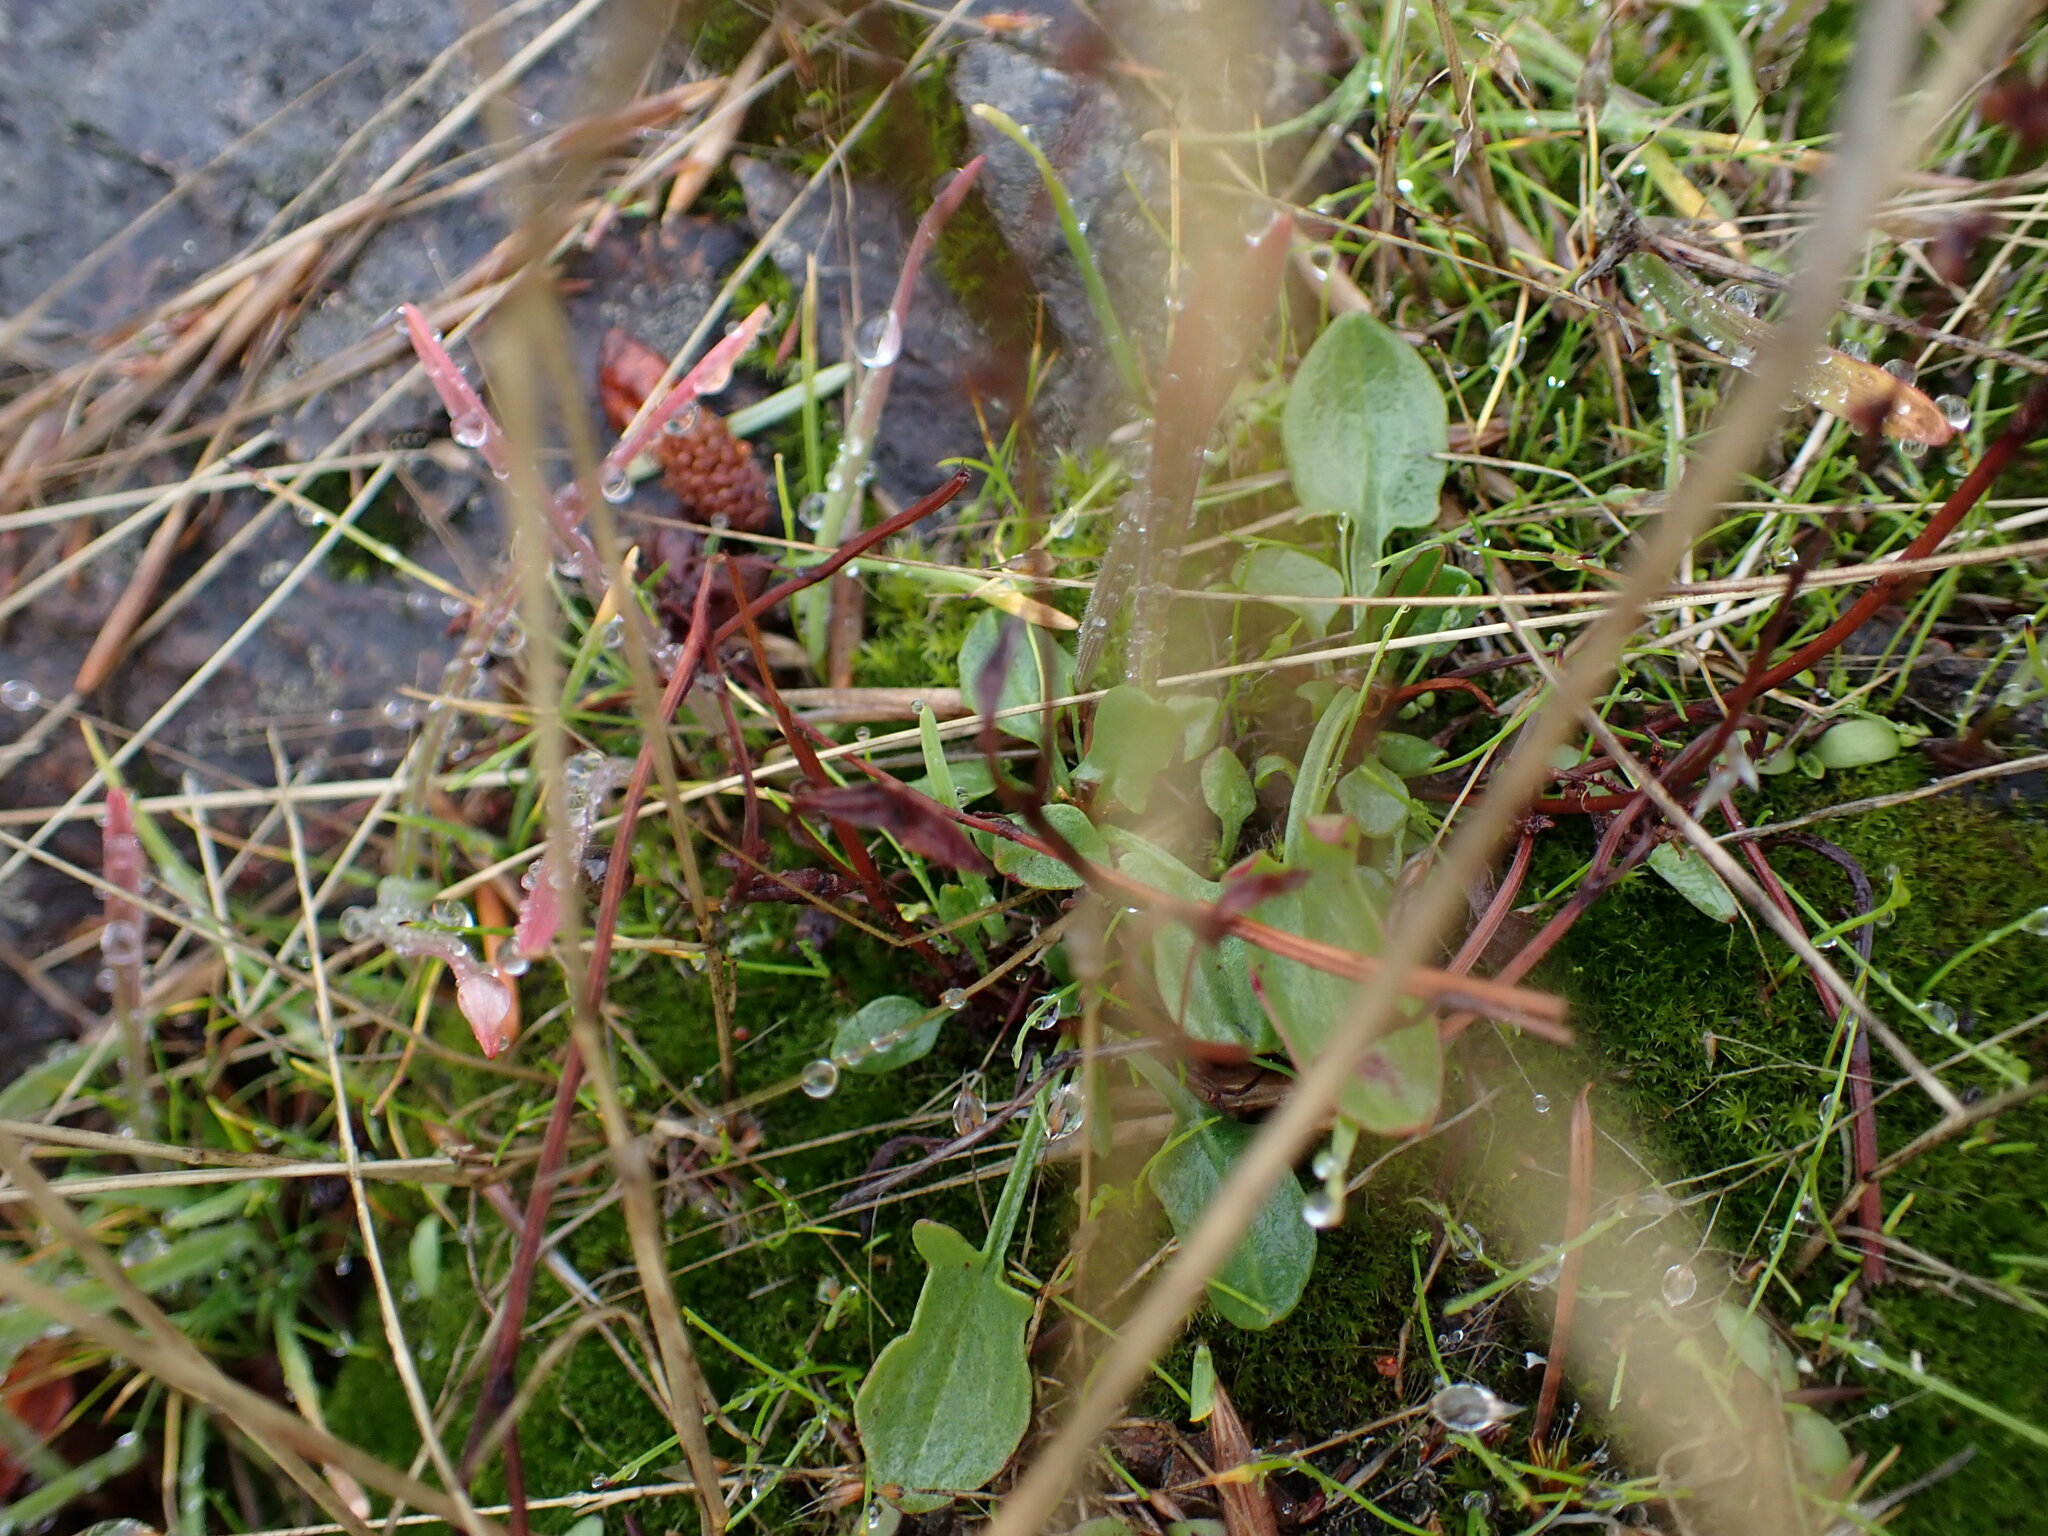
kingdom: Plantae
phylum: Tracheophyta
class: Magnoliopsida
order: Caryophyllales
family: Polygonaceae
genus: Rumex
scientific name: Rumex acetosella
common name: Common sheep sorrel
